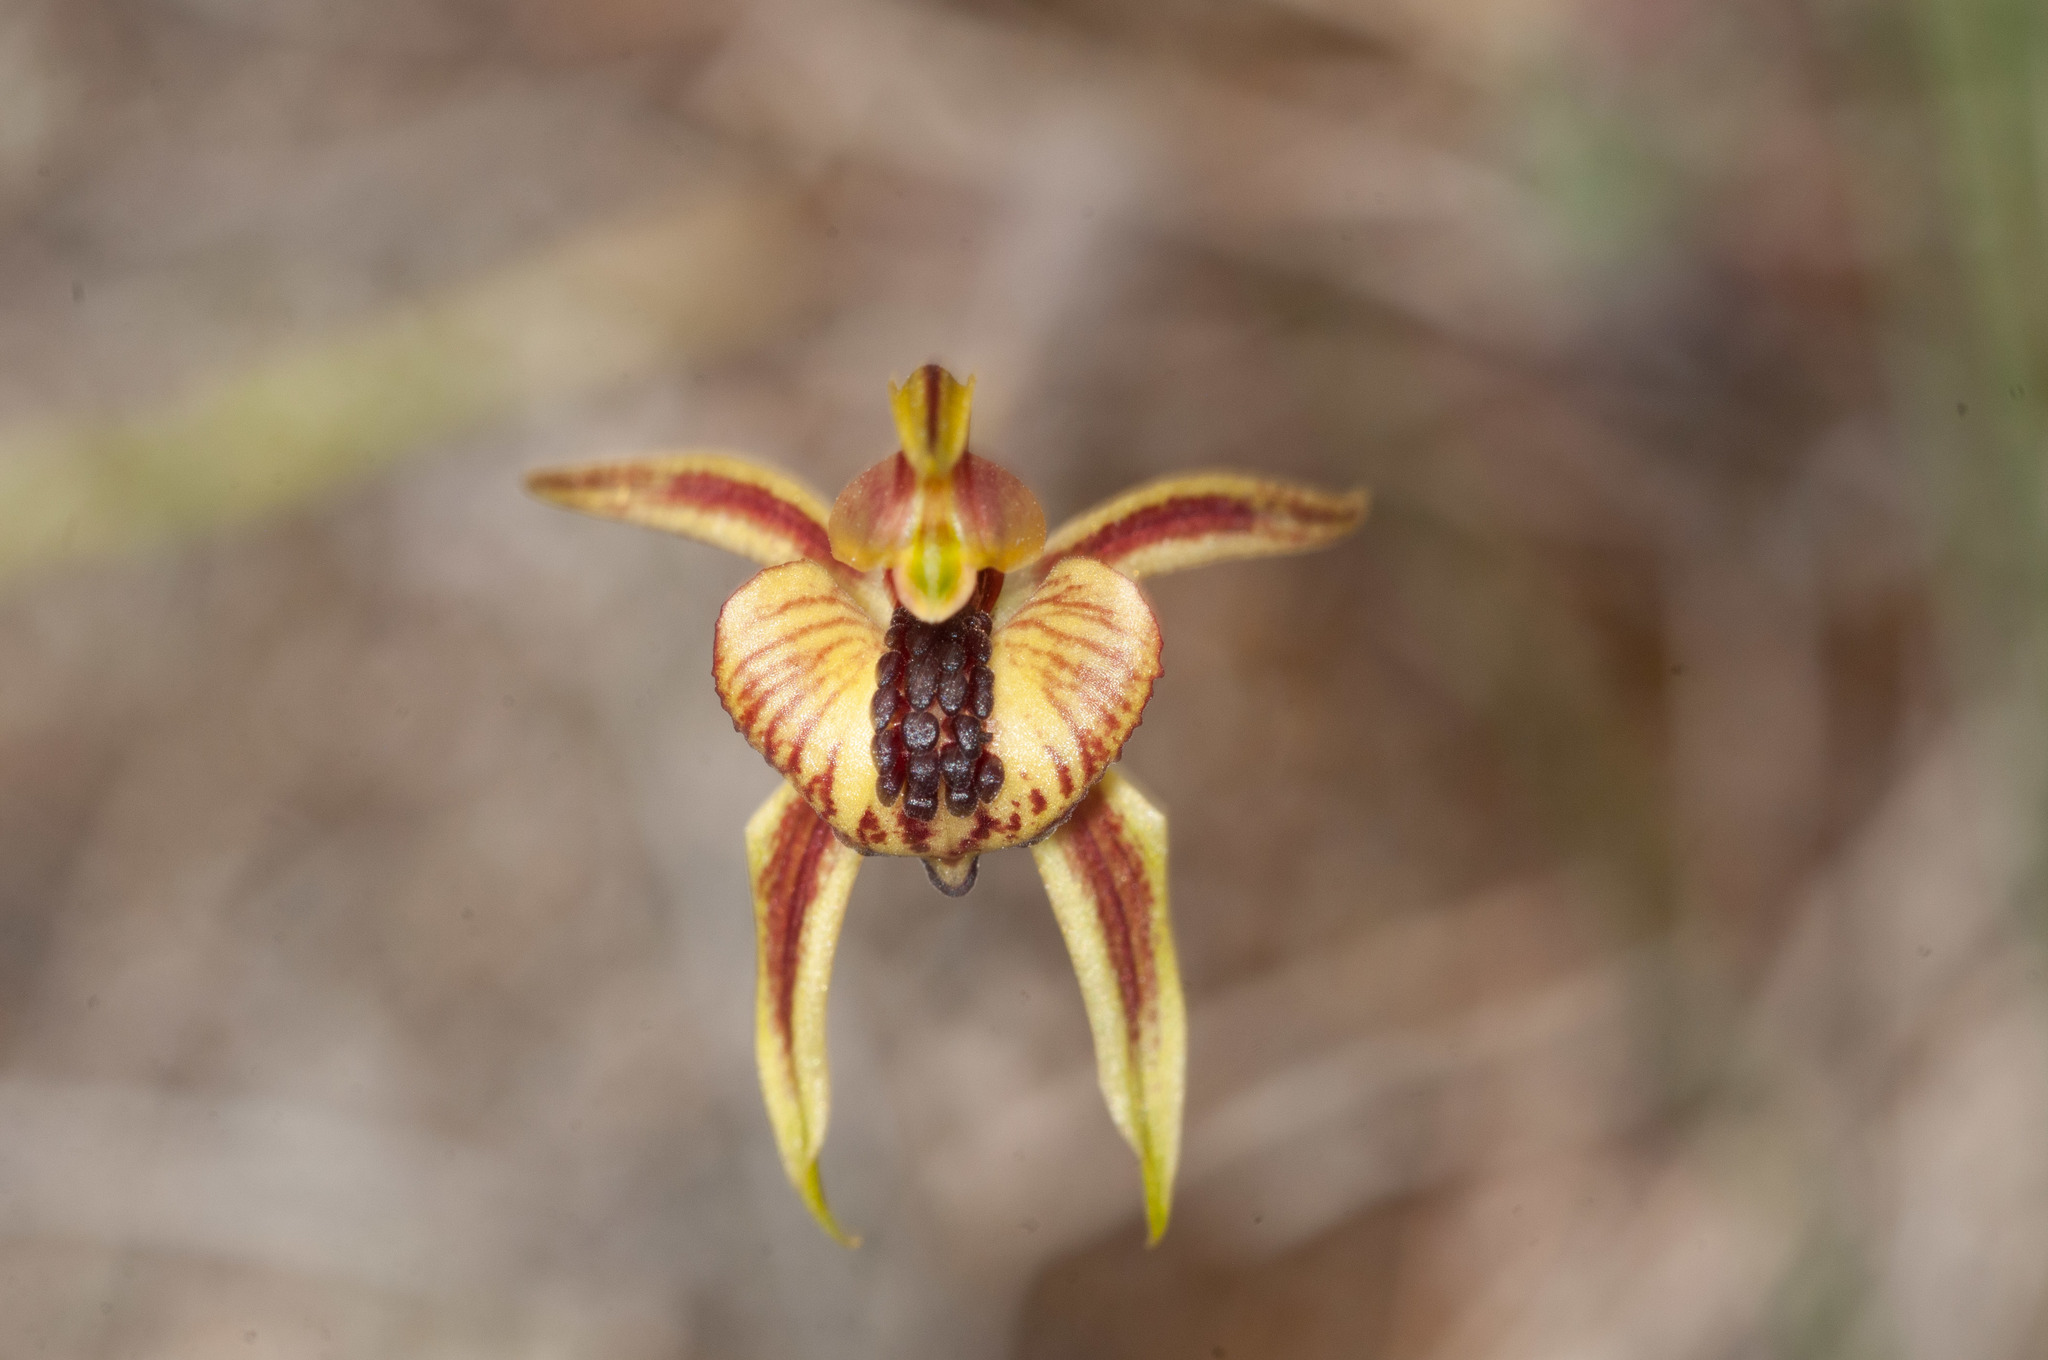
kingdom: Plantae
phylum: Tracheophyta
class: Liliopsida
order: Asparagales
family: Orchidaceae
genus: Caladenia
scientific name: Caladenia cardiochila
